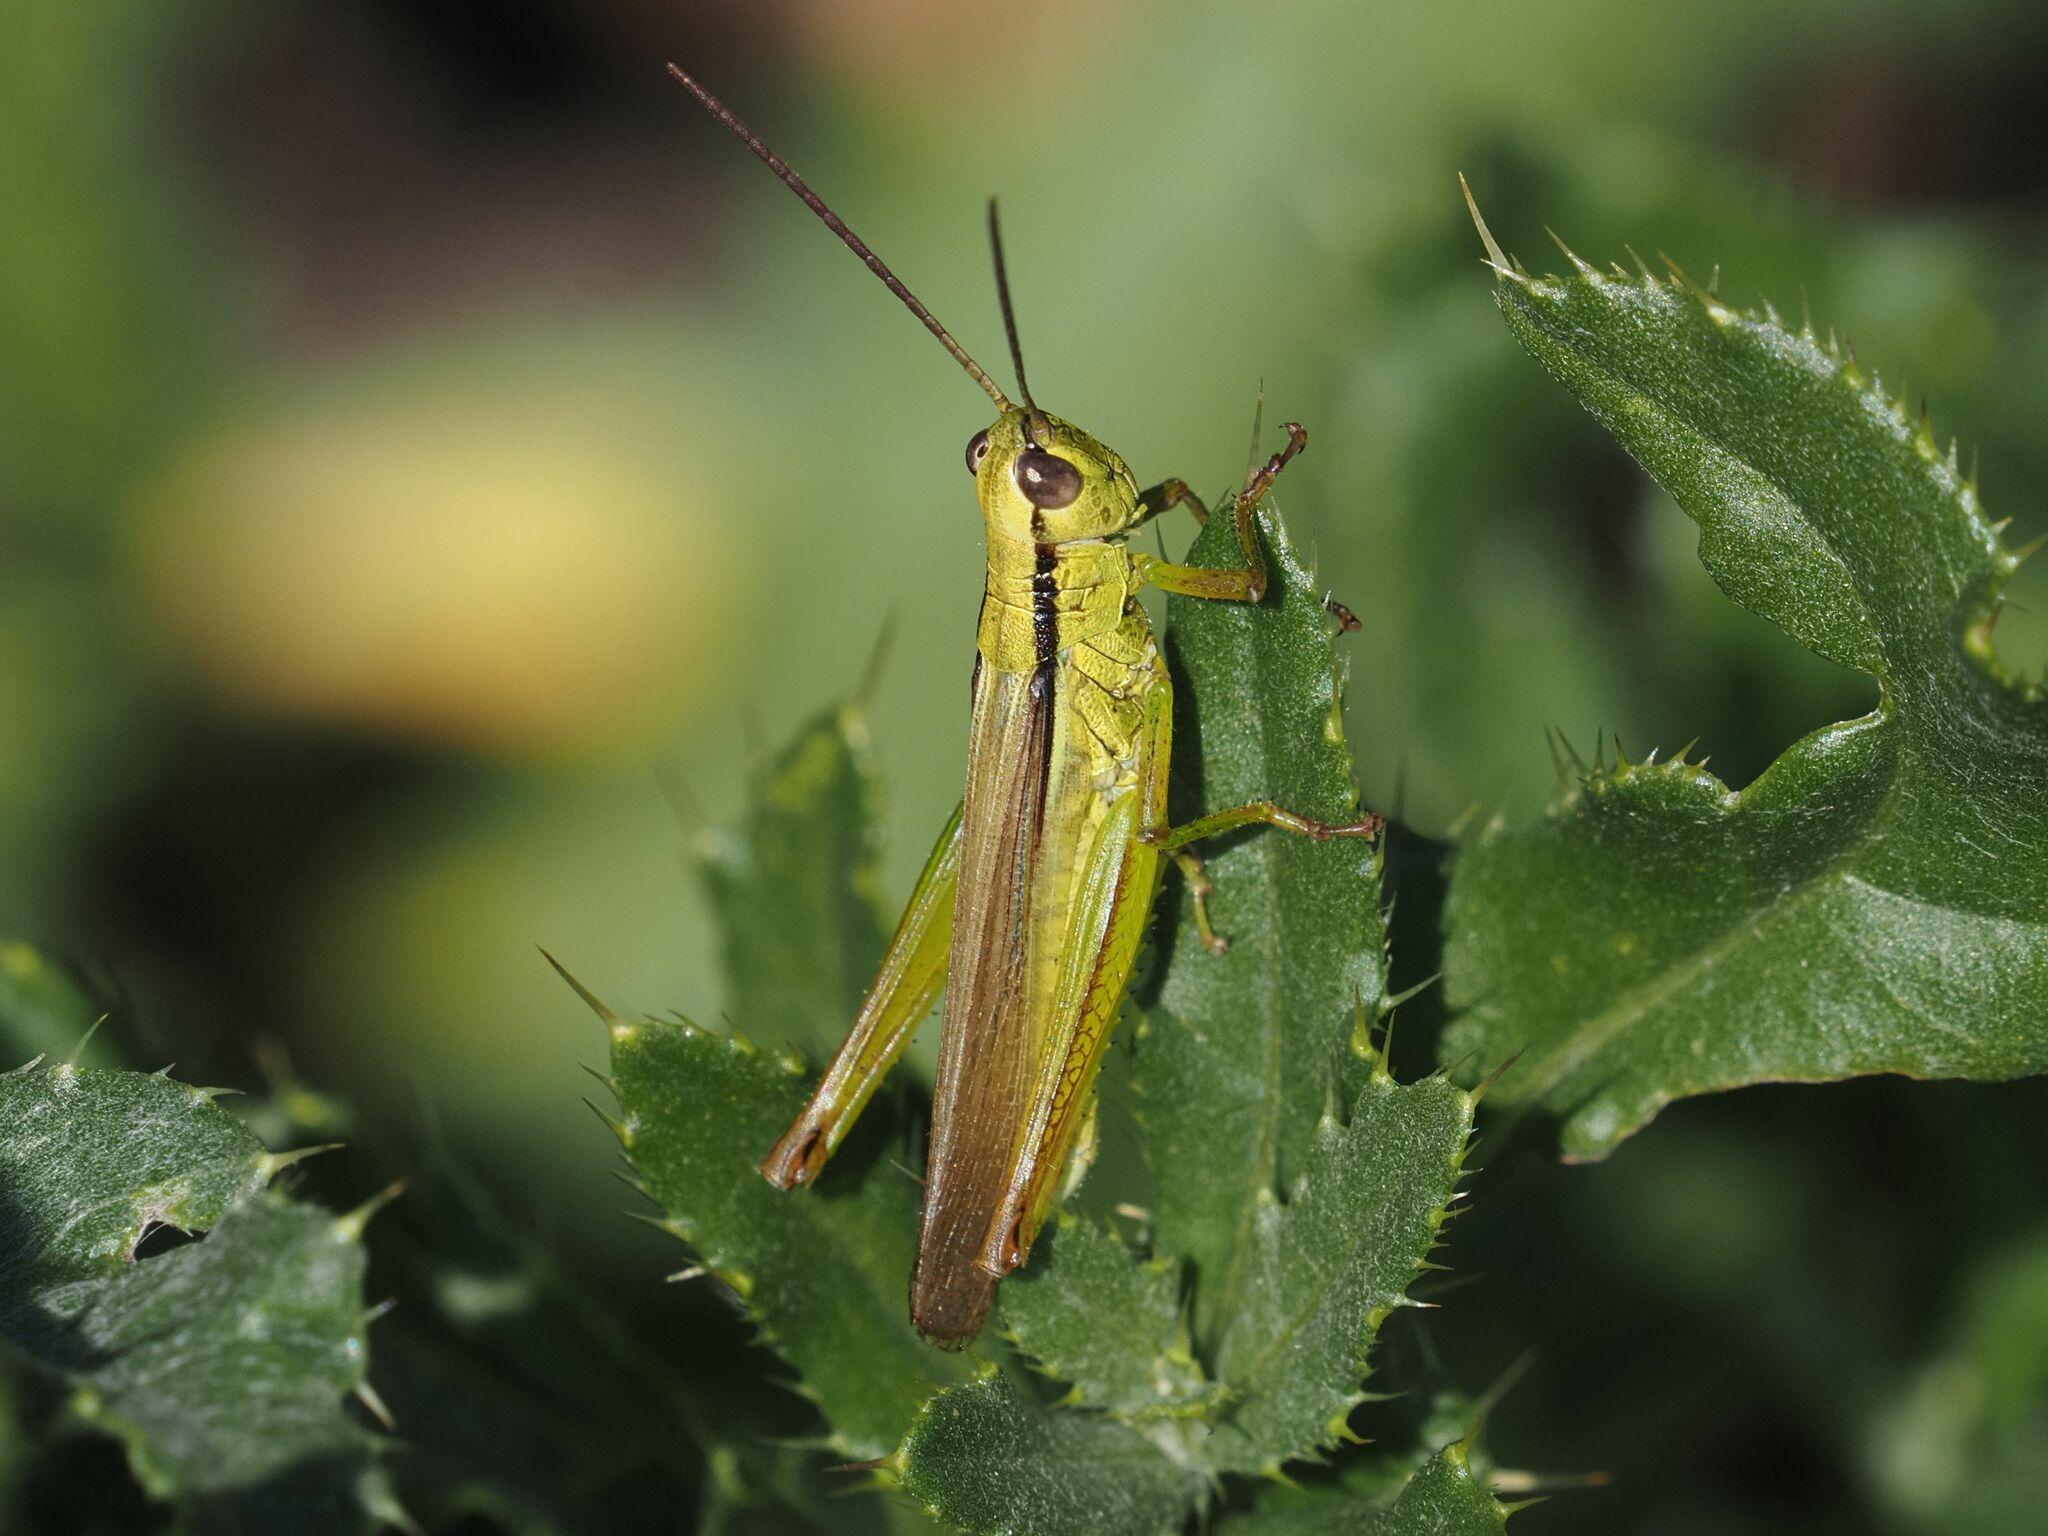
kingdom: Animalia
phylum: Arthropoda
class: Insecta
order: Orthoptera
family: Acrididae
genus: Mecostethus
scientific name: Mecostethus parapleurus
